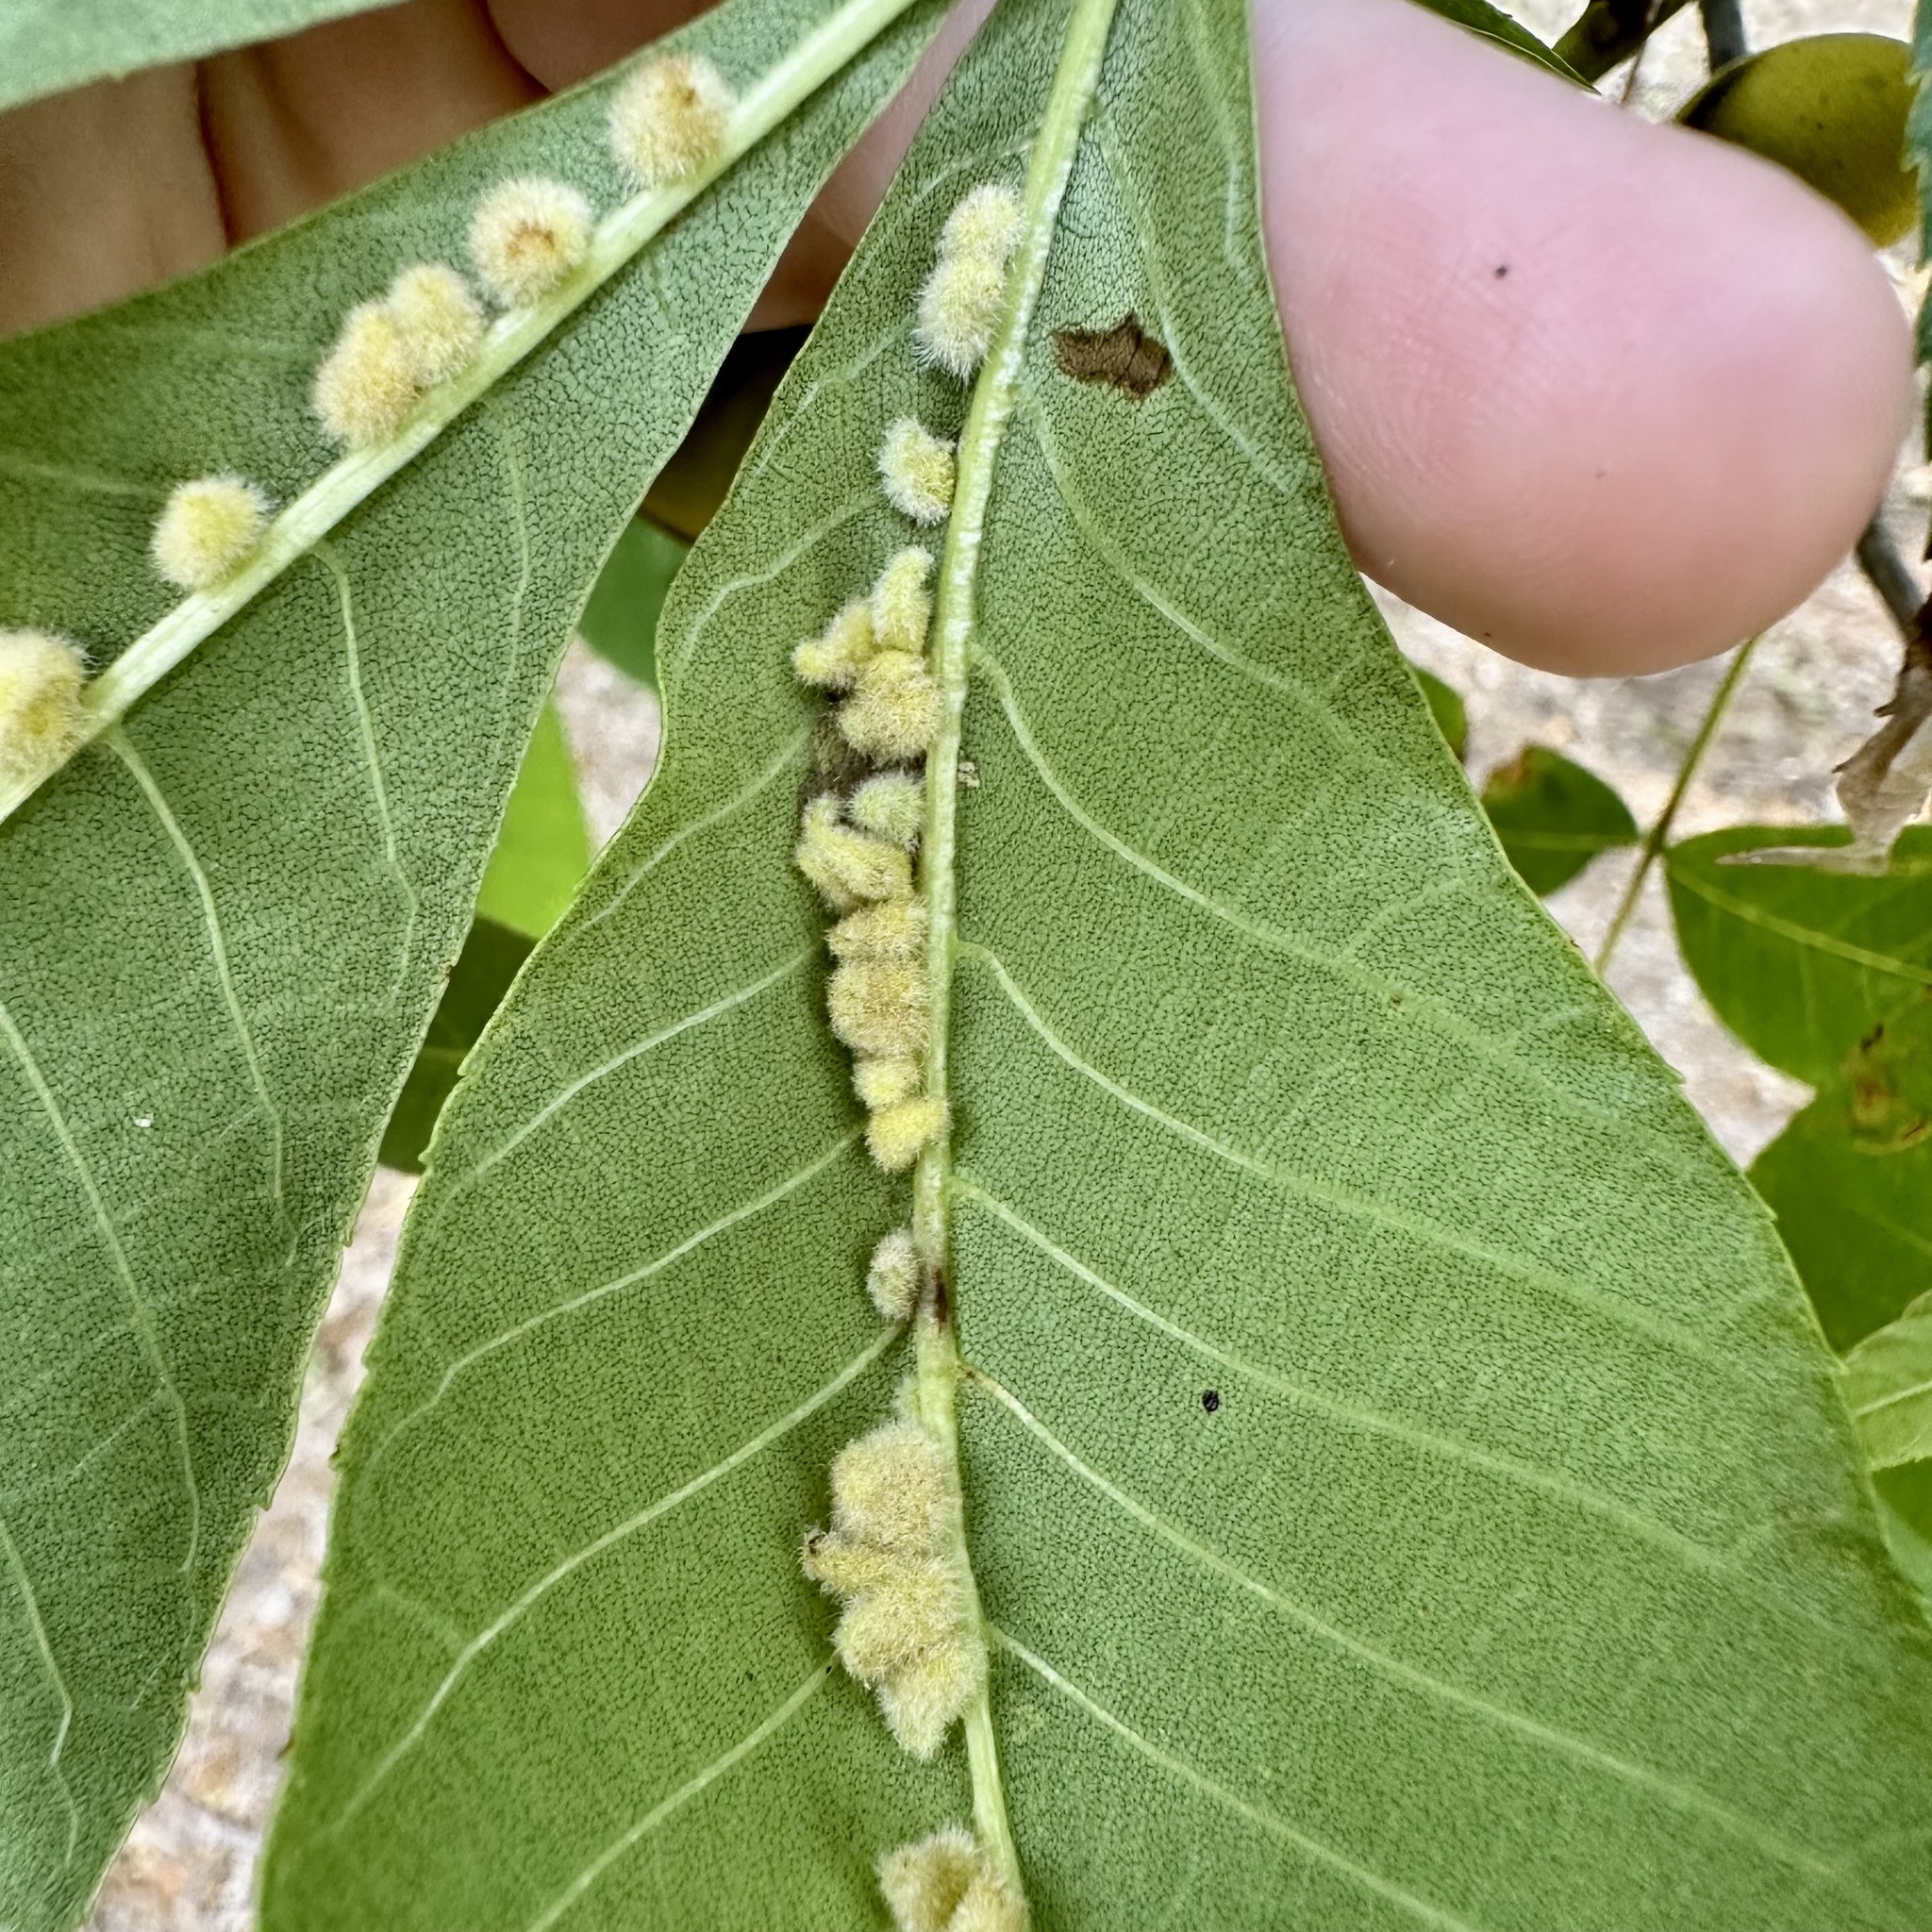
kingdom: Animalia
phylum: Arthropoda
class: Insecta
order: Diptera
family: Cecidomyiidae
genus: Caryomyia
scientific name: Caryomyia aggregata
